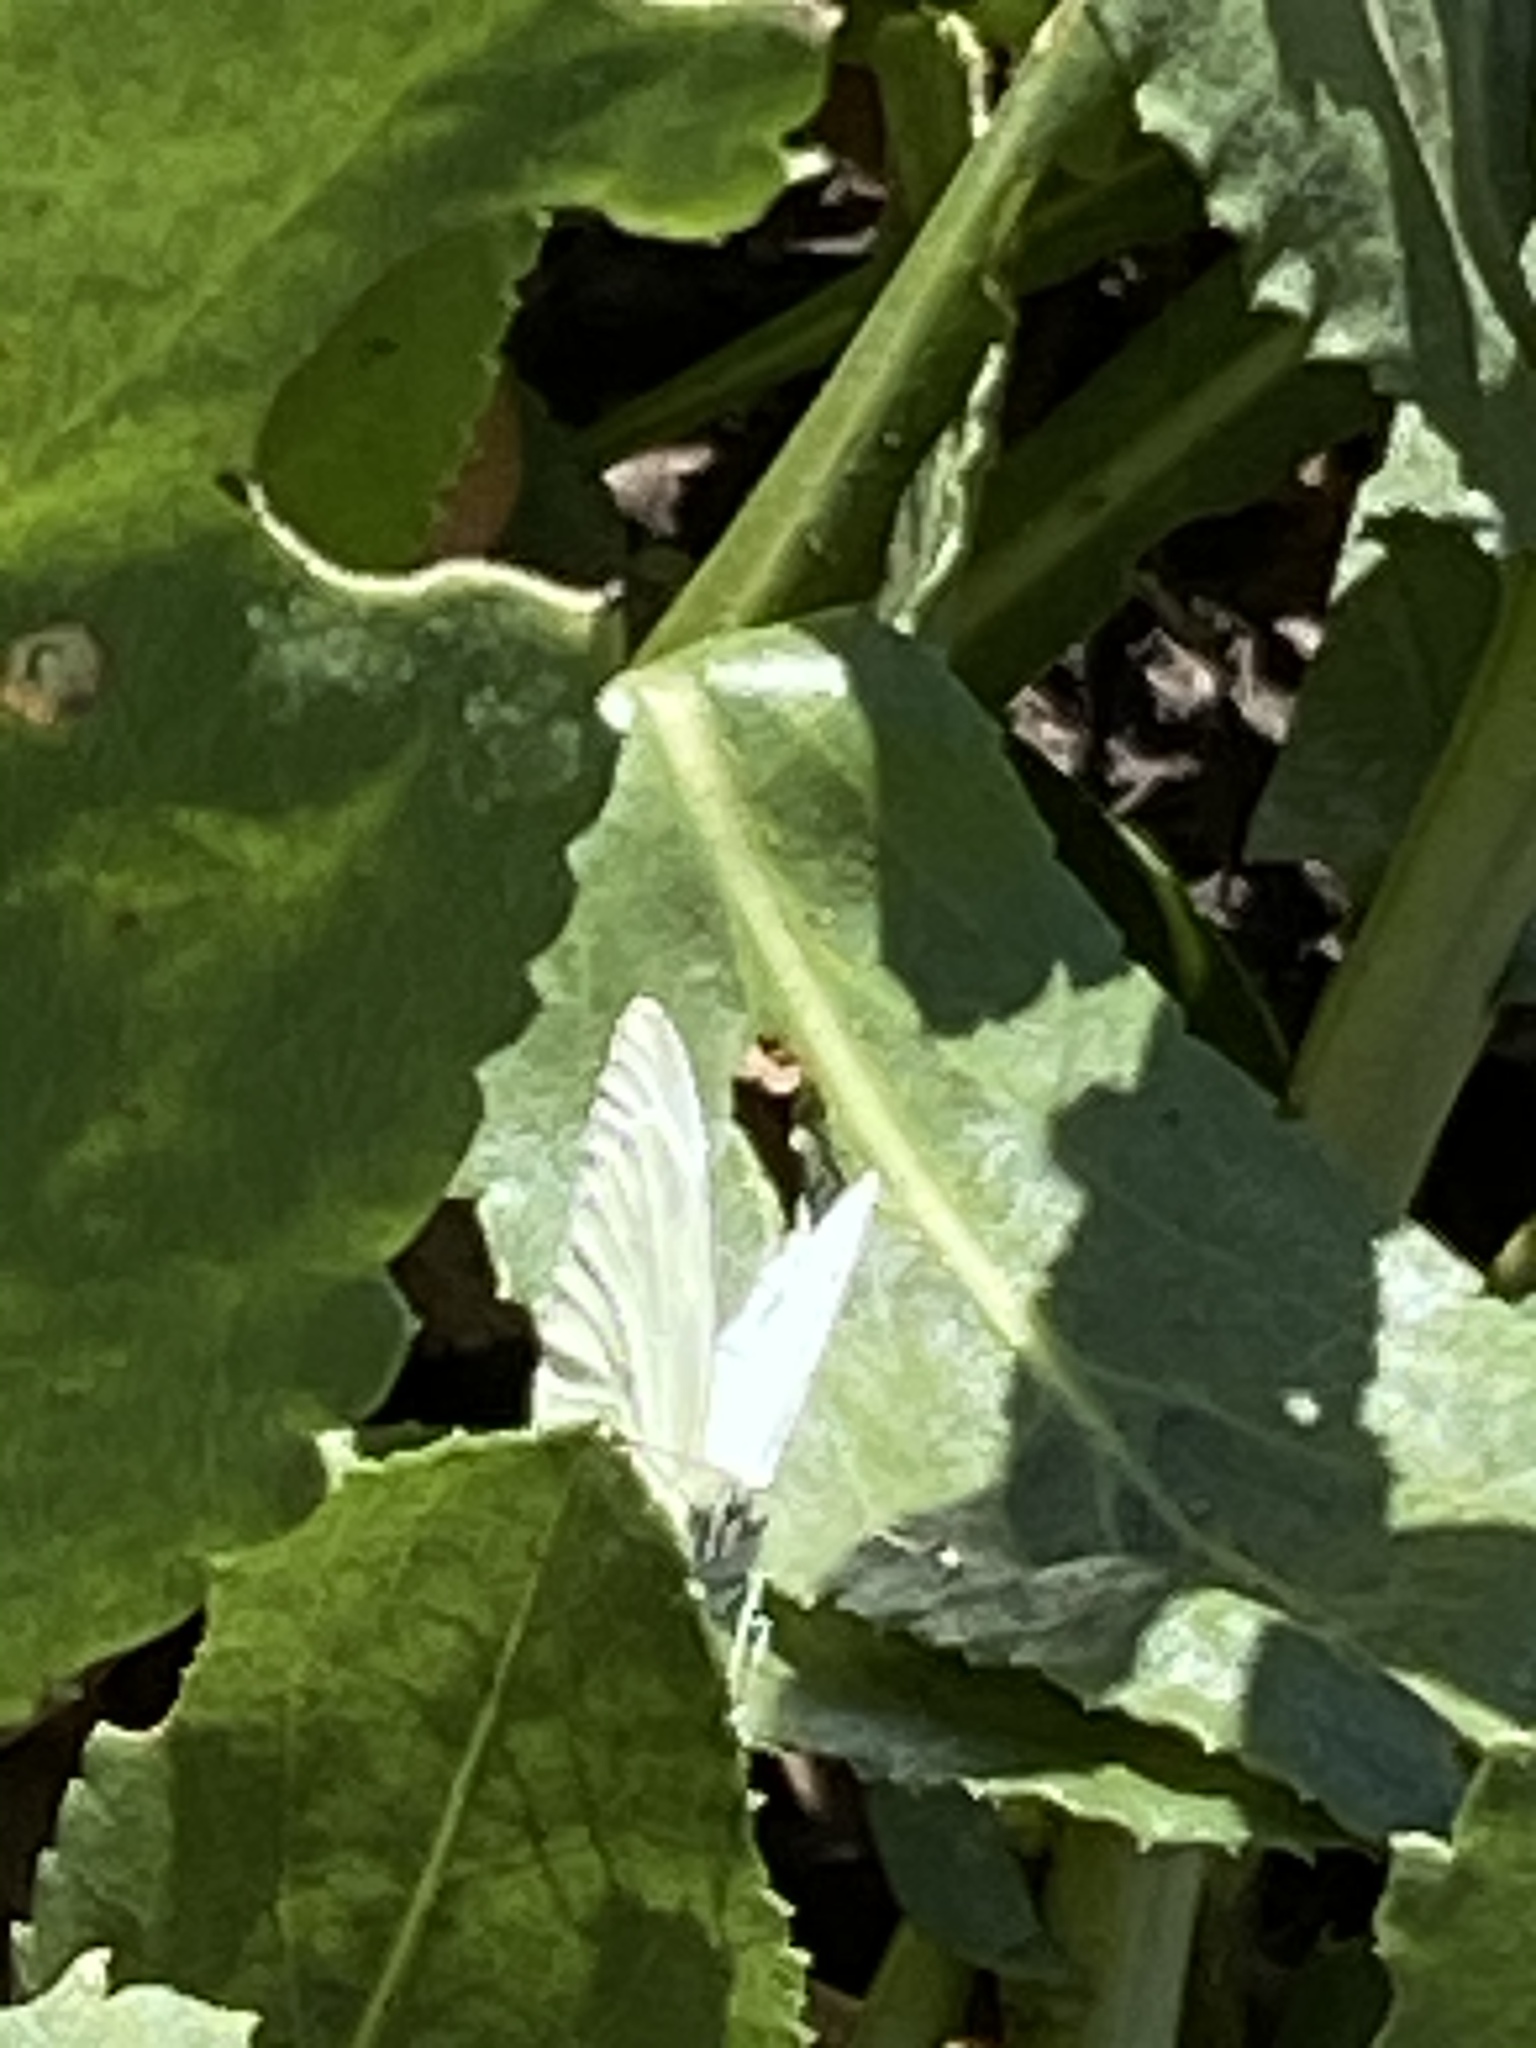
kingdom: Animalia
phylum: Arthropoda
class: Insecta
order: Lepidoptera
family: Pieridae
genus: Pieris
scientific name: Pieris rapae
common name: Small white
